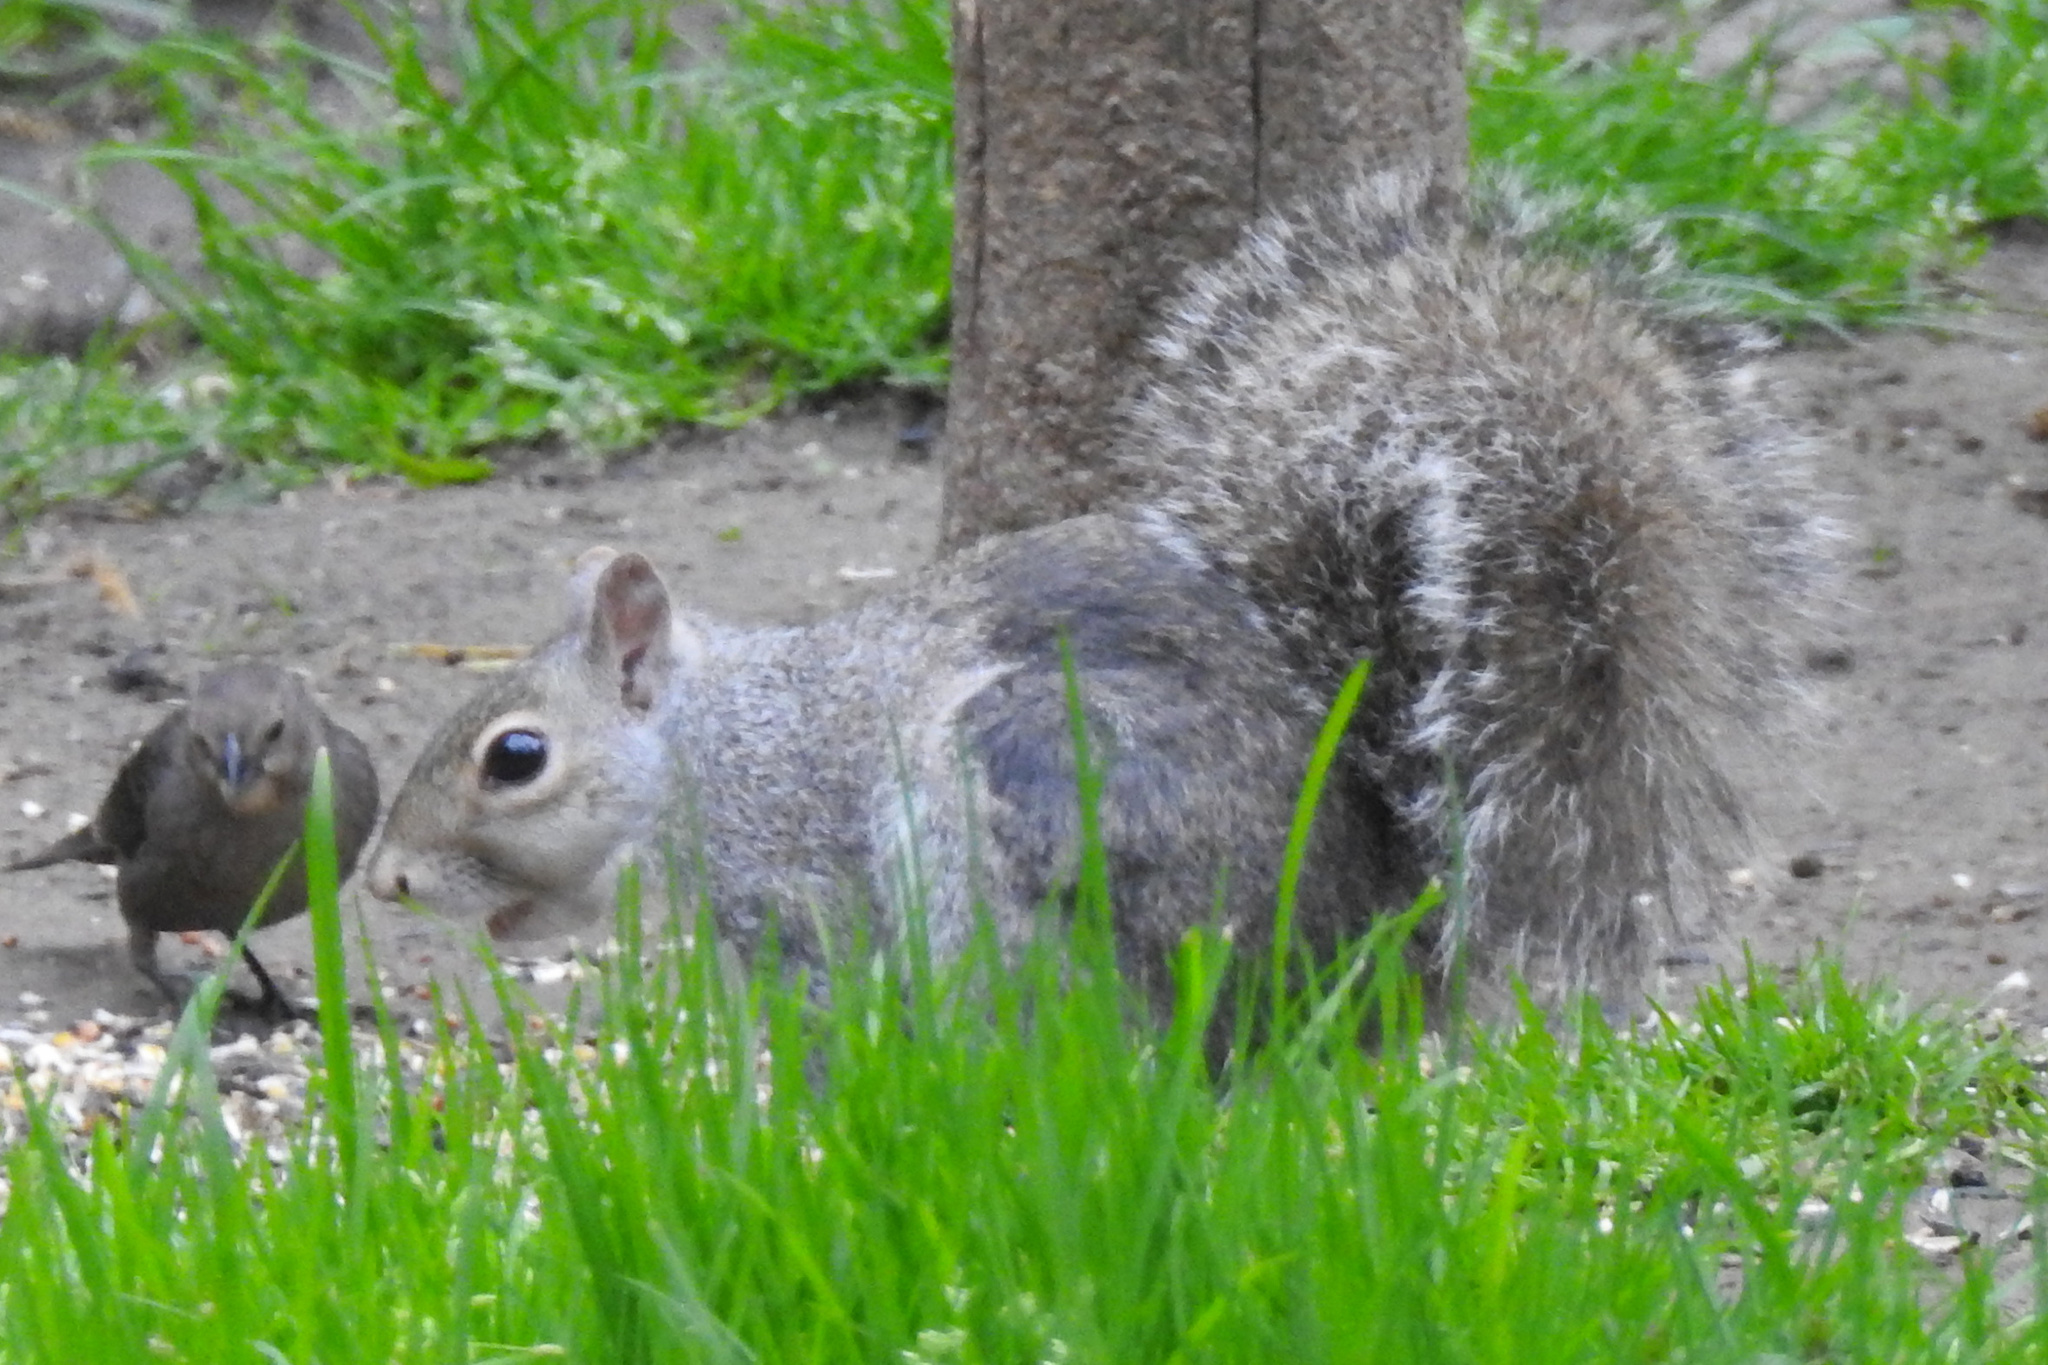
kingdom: Animalia
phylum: Chordata
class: Mammalia
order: Rodentia
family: Sciuridae
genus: Sciurus
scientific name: Sciurus carolinensis
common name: Eastern gray squirrel
